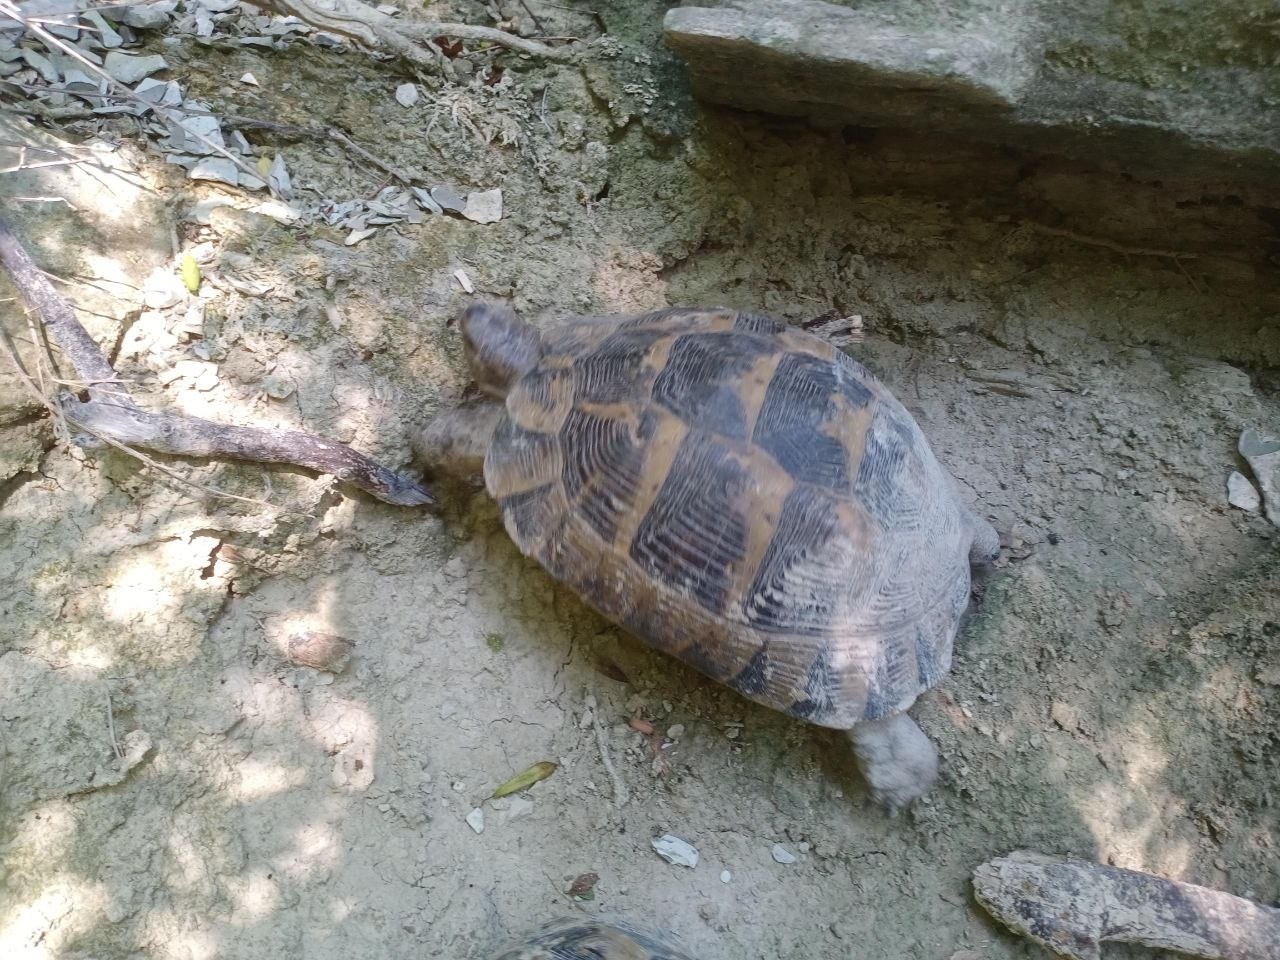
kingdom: Animalia
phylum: Chordata
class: Testudines
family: Testudinidae
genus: Testudo
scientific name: Testudo graeca
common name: Common tortoise
